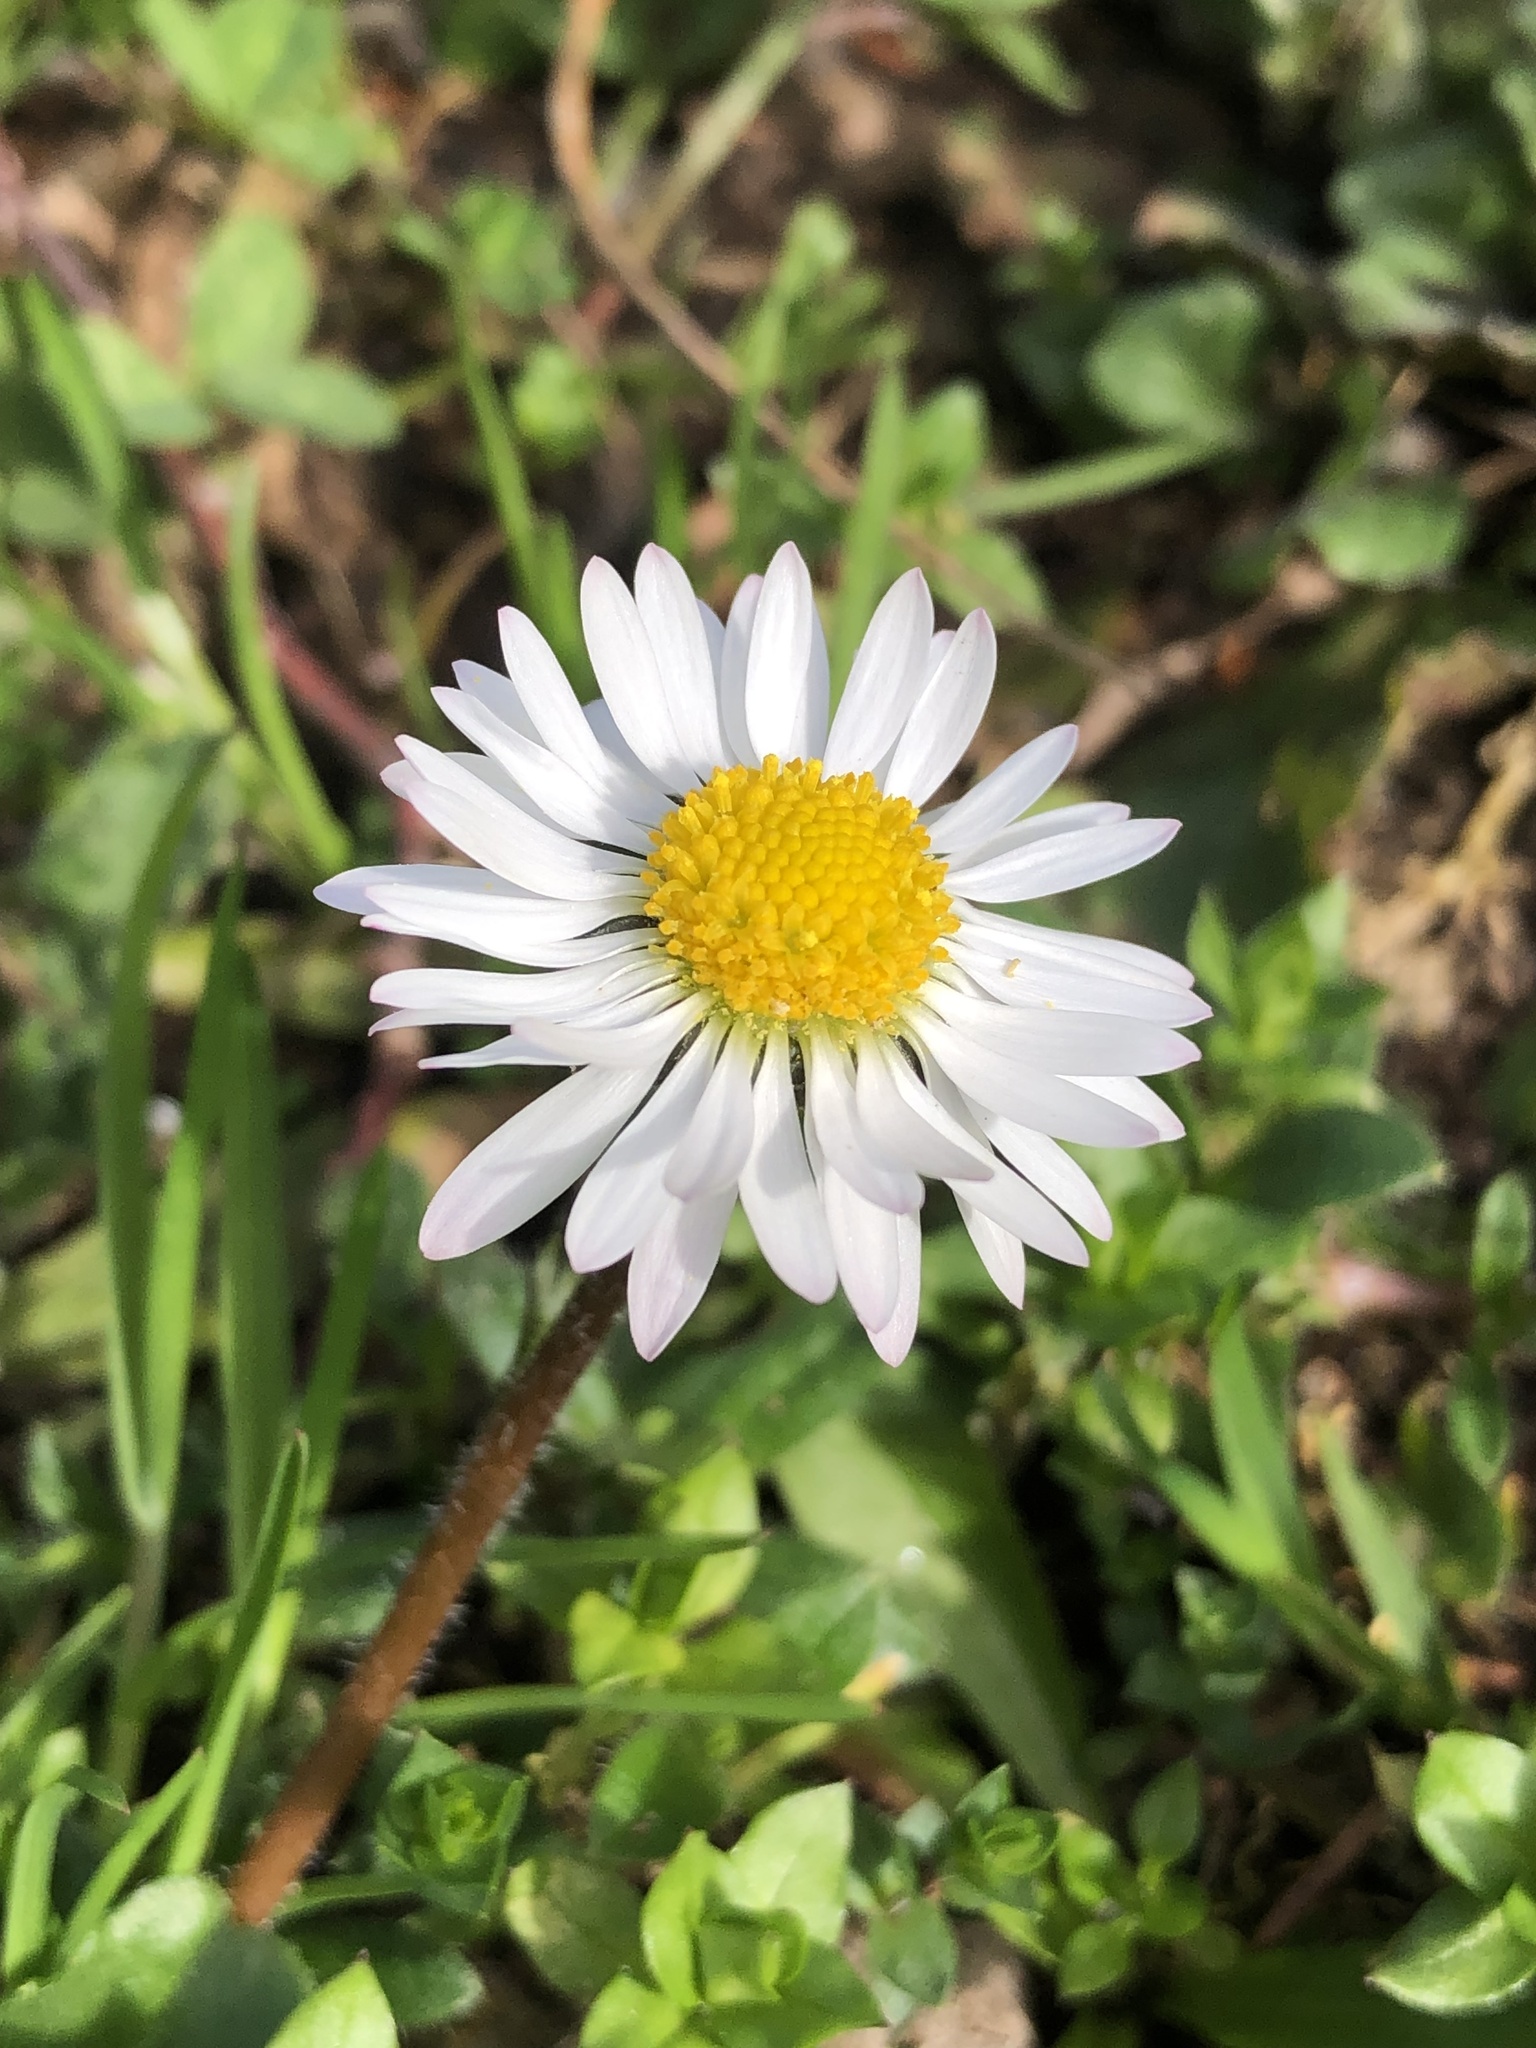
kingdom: Plantae
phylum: Tracheophyta
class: Magnoliopsida
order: Asterales
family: Asteraceae
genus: Bellis
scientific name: Bellis perennis
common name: Lawndaisy
